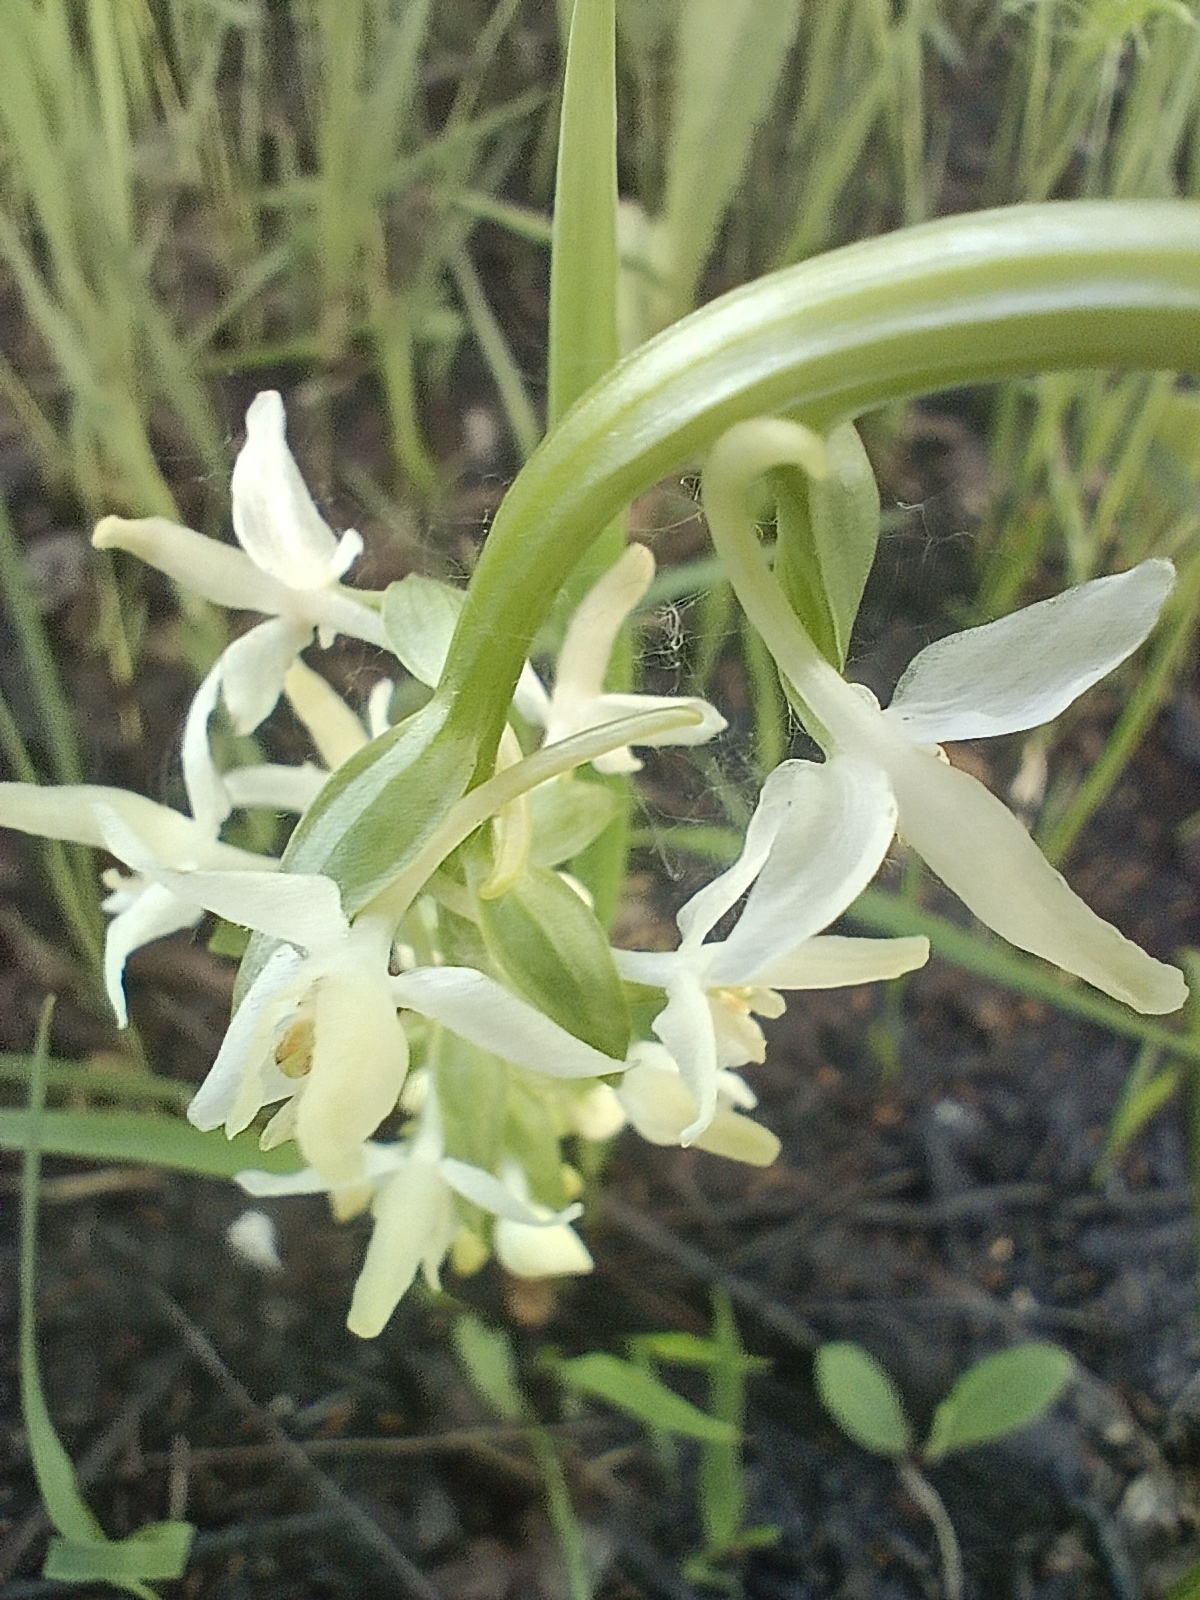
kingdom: Plantae
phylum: Tracheophyta
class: Liliopsida
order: Asparagales
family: Orchidaceae
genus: Platanthera
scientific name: Platanthera bifolia
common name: Lesser butterfly-orchid
